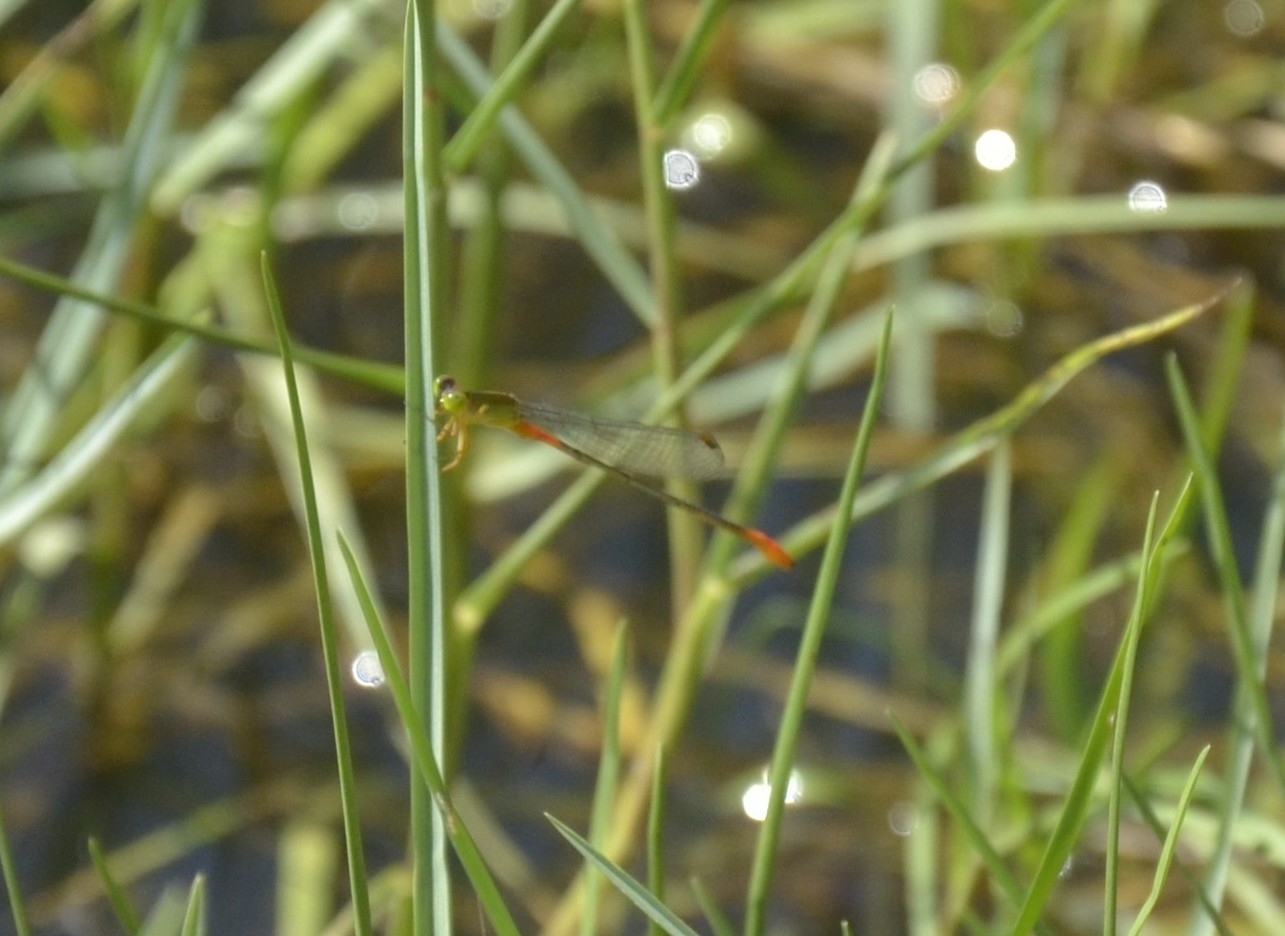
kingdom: Animalia
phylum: Arthropoda
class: Insecta
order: Odonata
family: Coenagrionidae
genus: Ceriagrion
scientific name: Ceriagrion cerinorubellum
